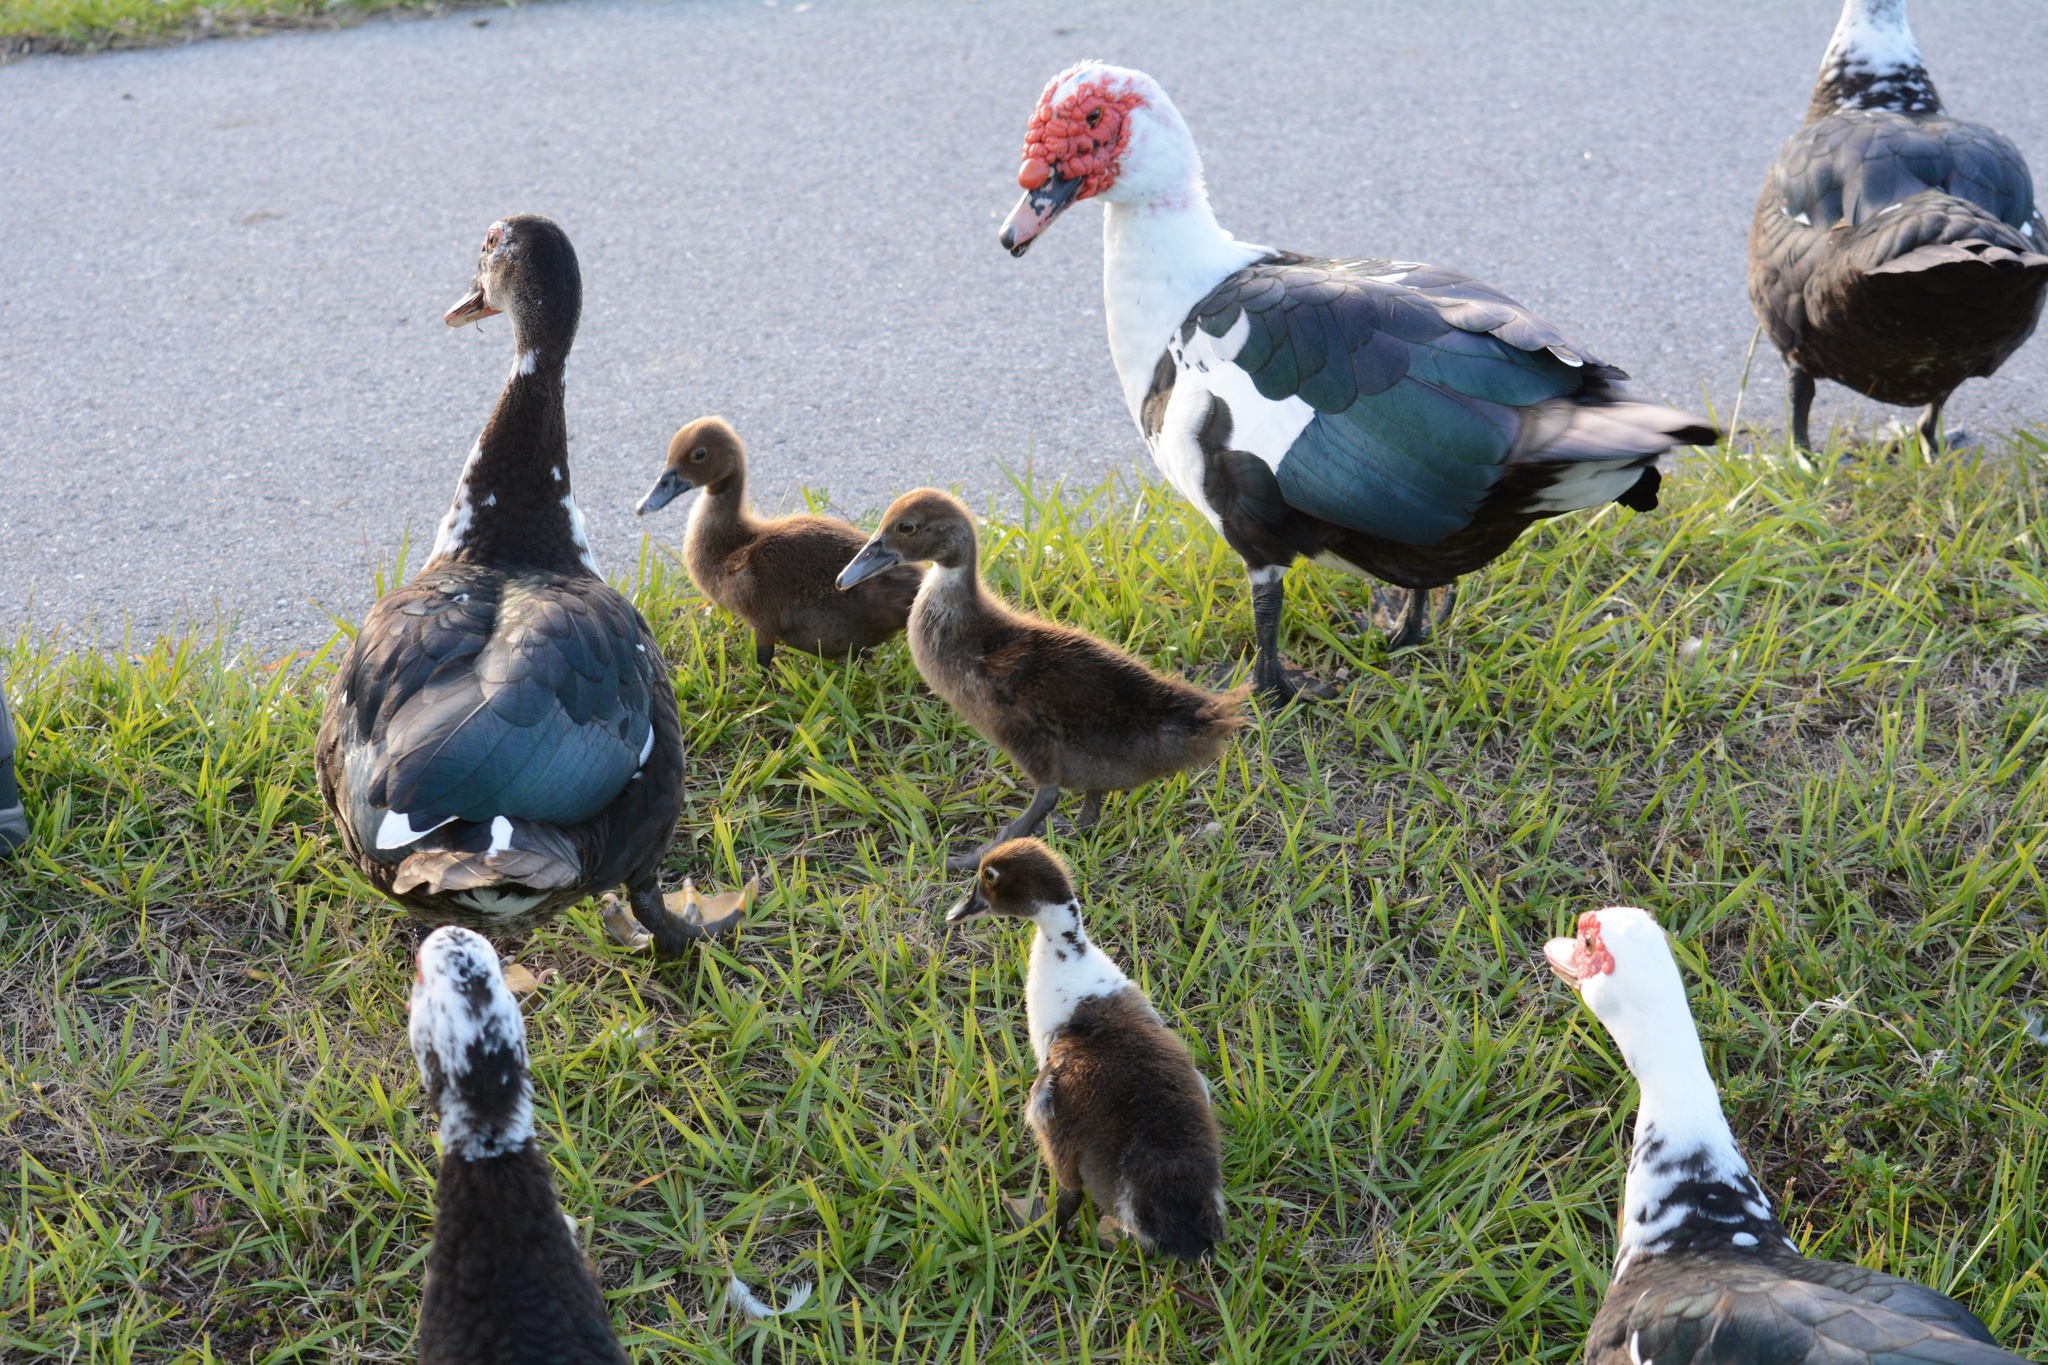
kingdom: Animalia
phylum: Chordata
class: Aves
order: Anseriformes
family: Anatidae
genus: Cairina
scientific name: Cairina moschata
